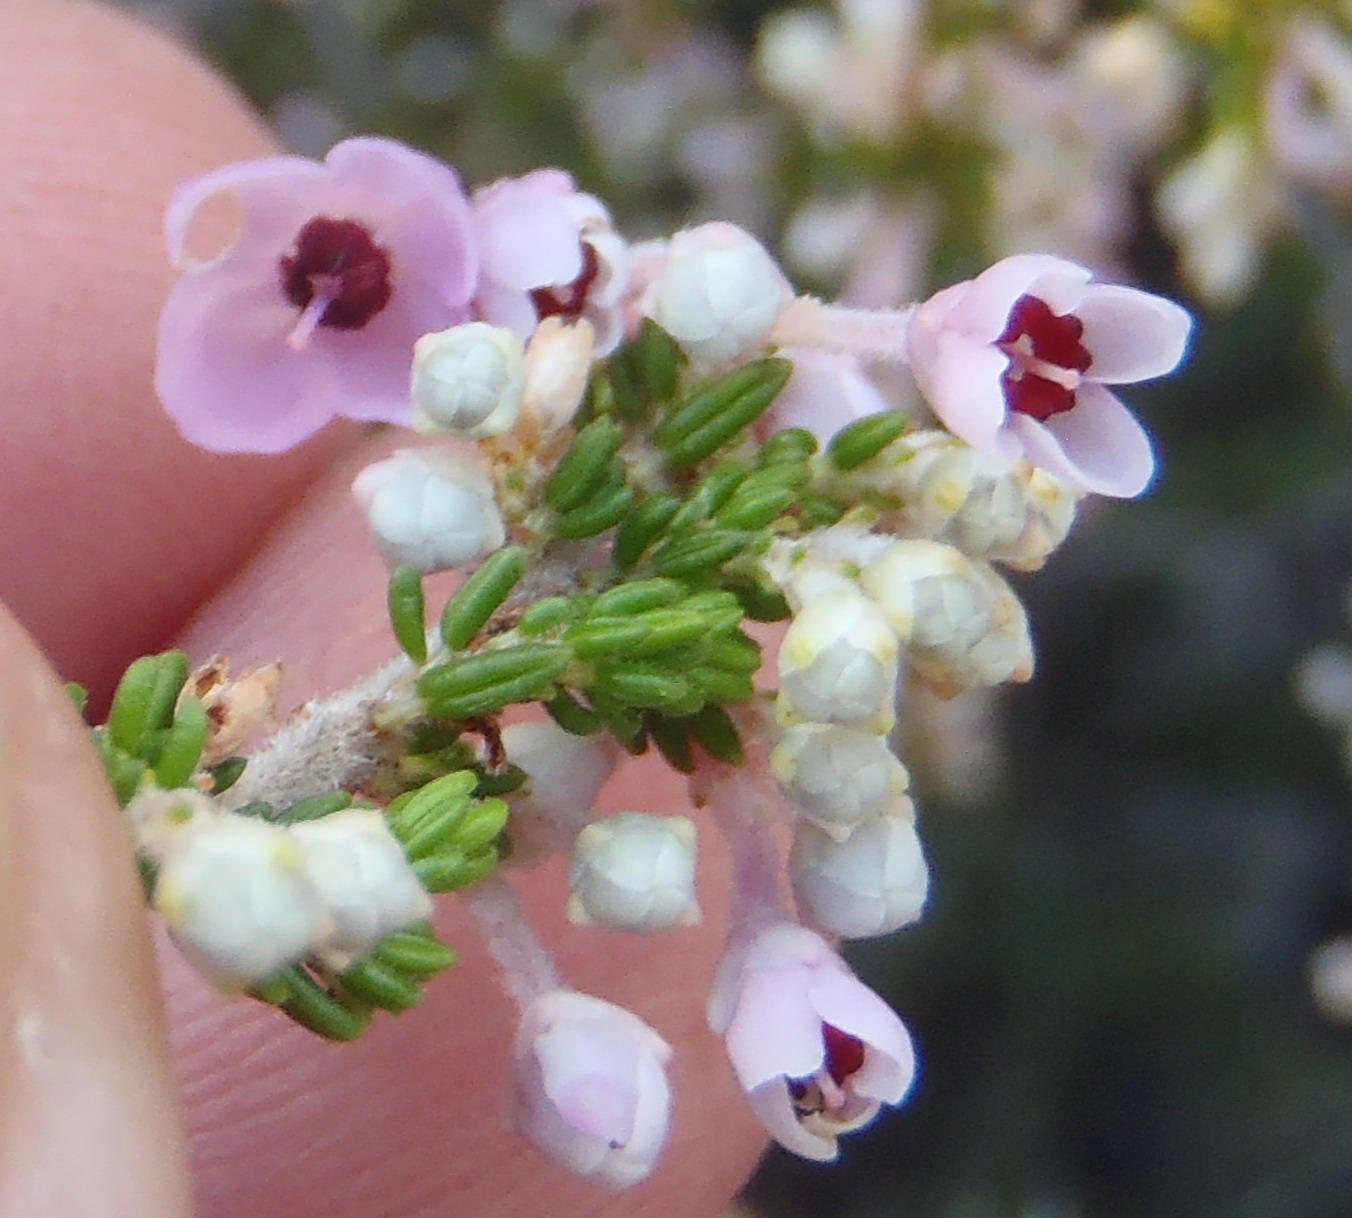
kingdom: Plantae
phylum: Tracheophyta
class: Magnoliopsida
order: Ericales
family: Ericaceae
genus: Erica
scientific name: Erica melanthera
